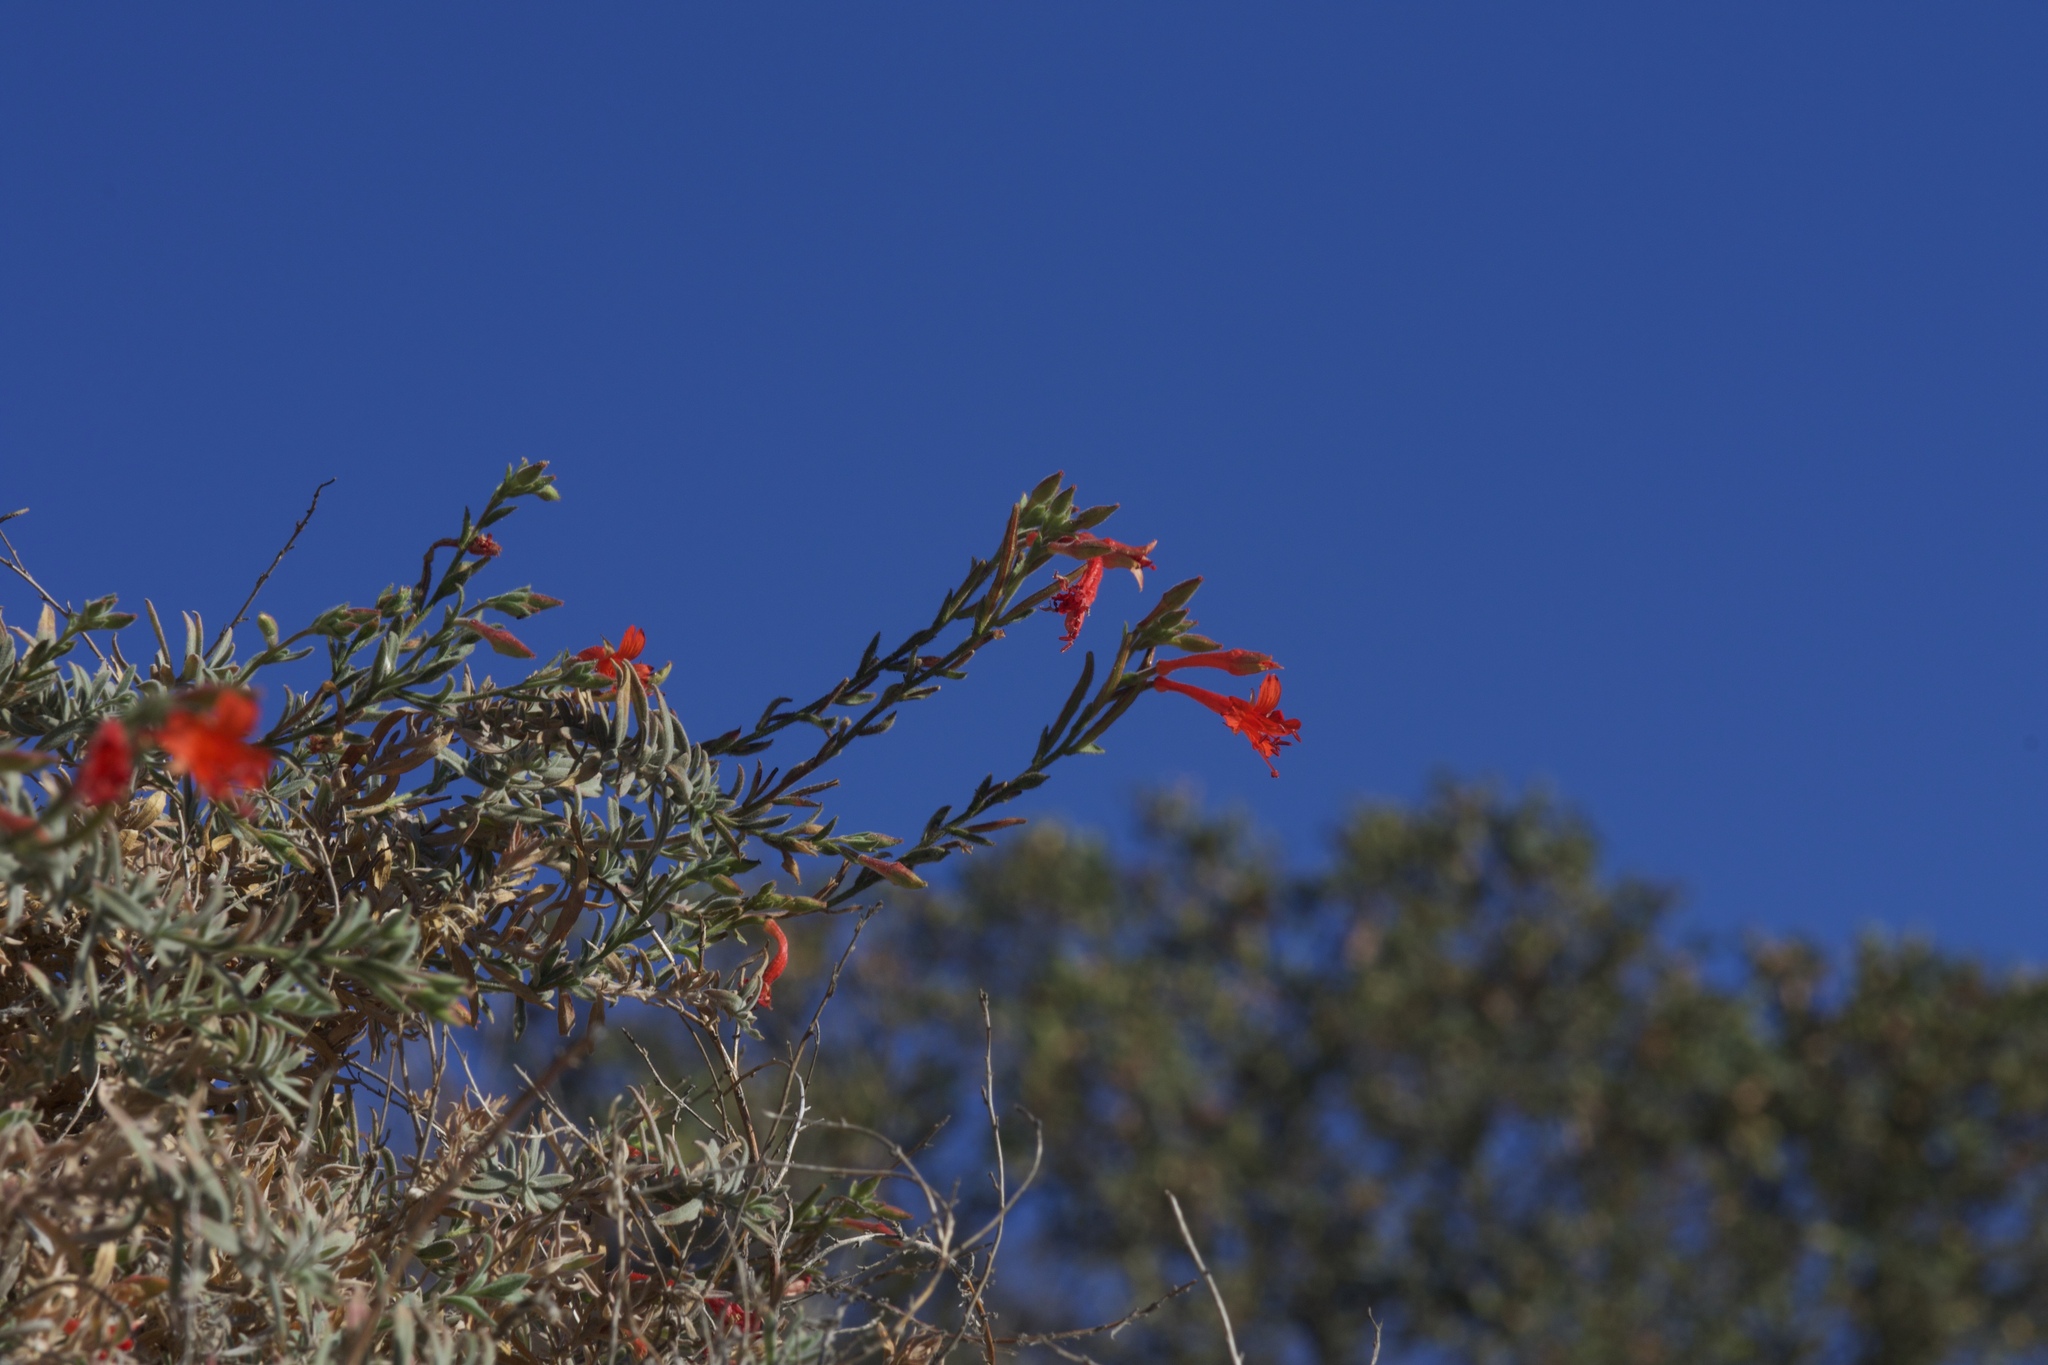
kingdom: Plantae
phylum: Tracheophyta
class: Magnoliopsida
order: Myrtales
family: Onagraceae
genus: Epilobium
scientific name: Epilobium canum
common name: California-fuchsia
